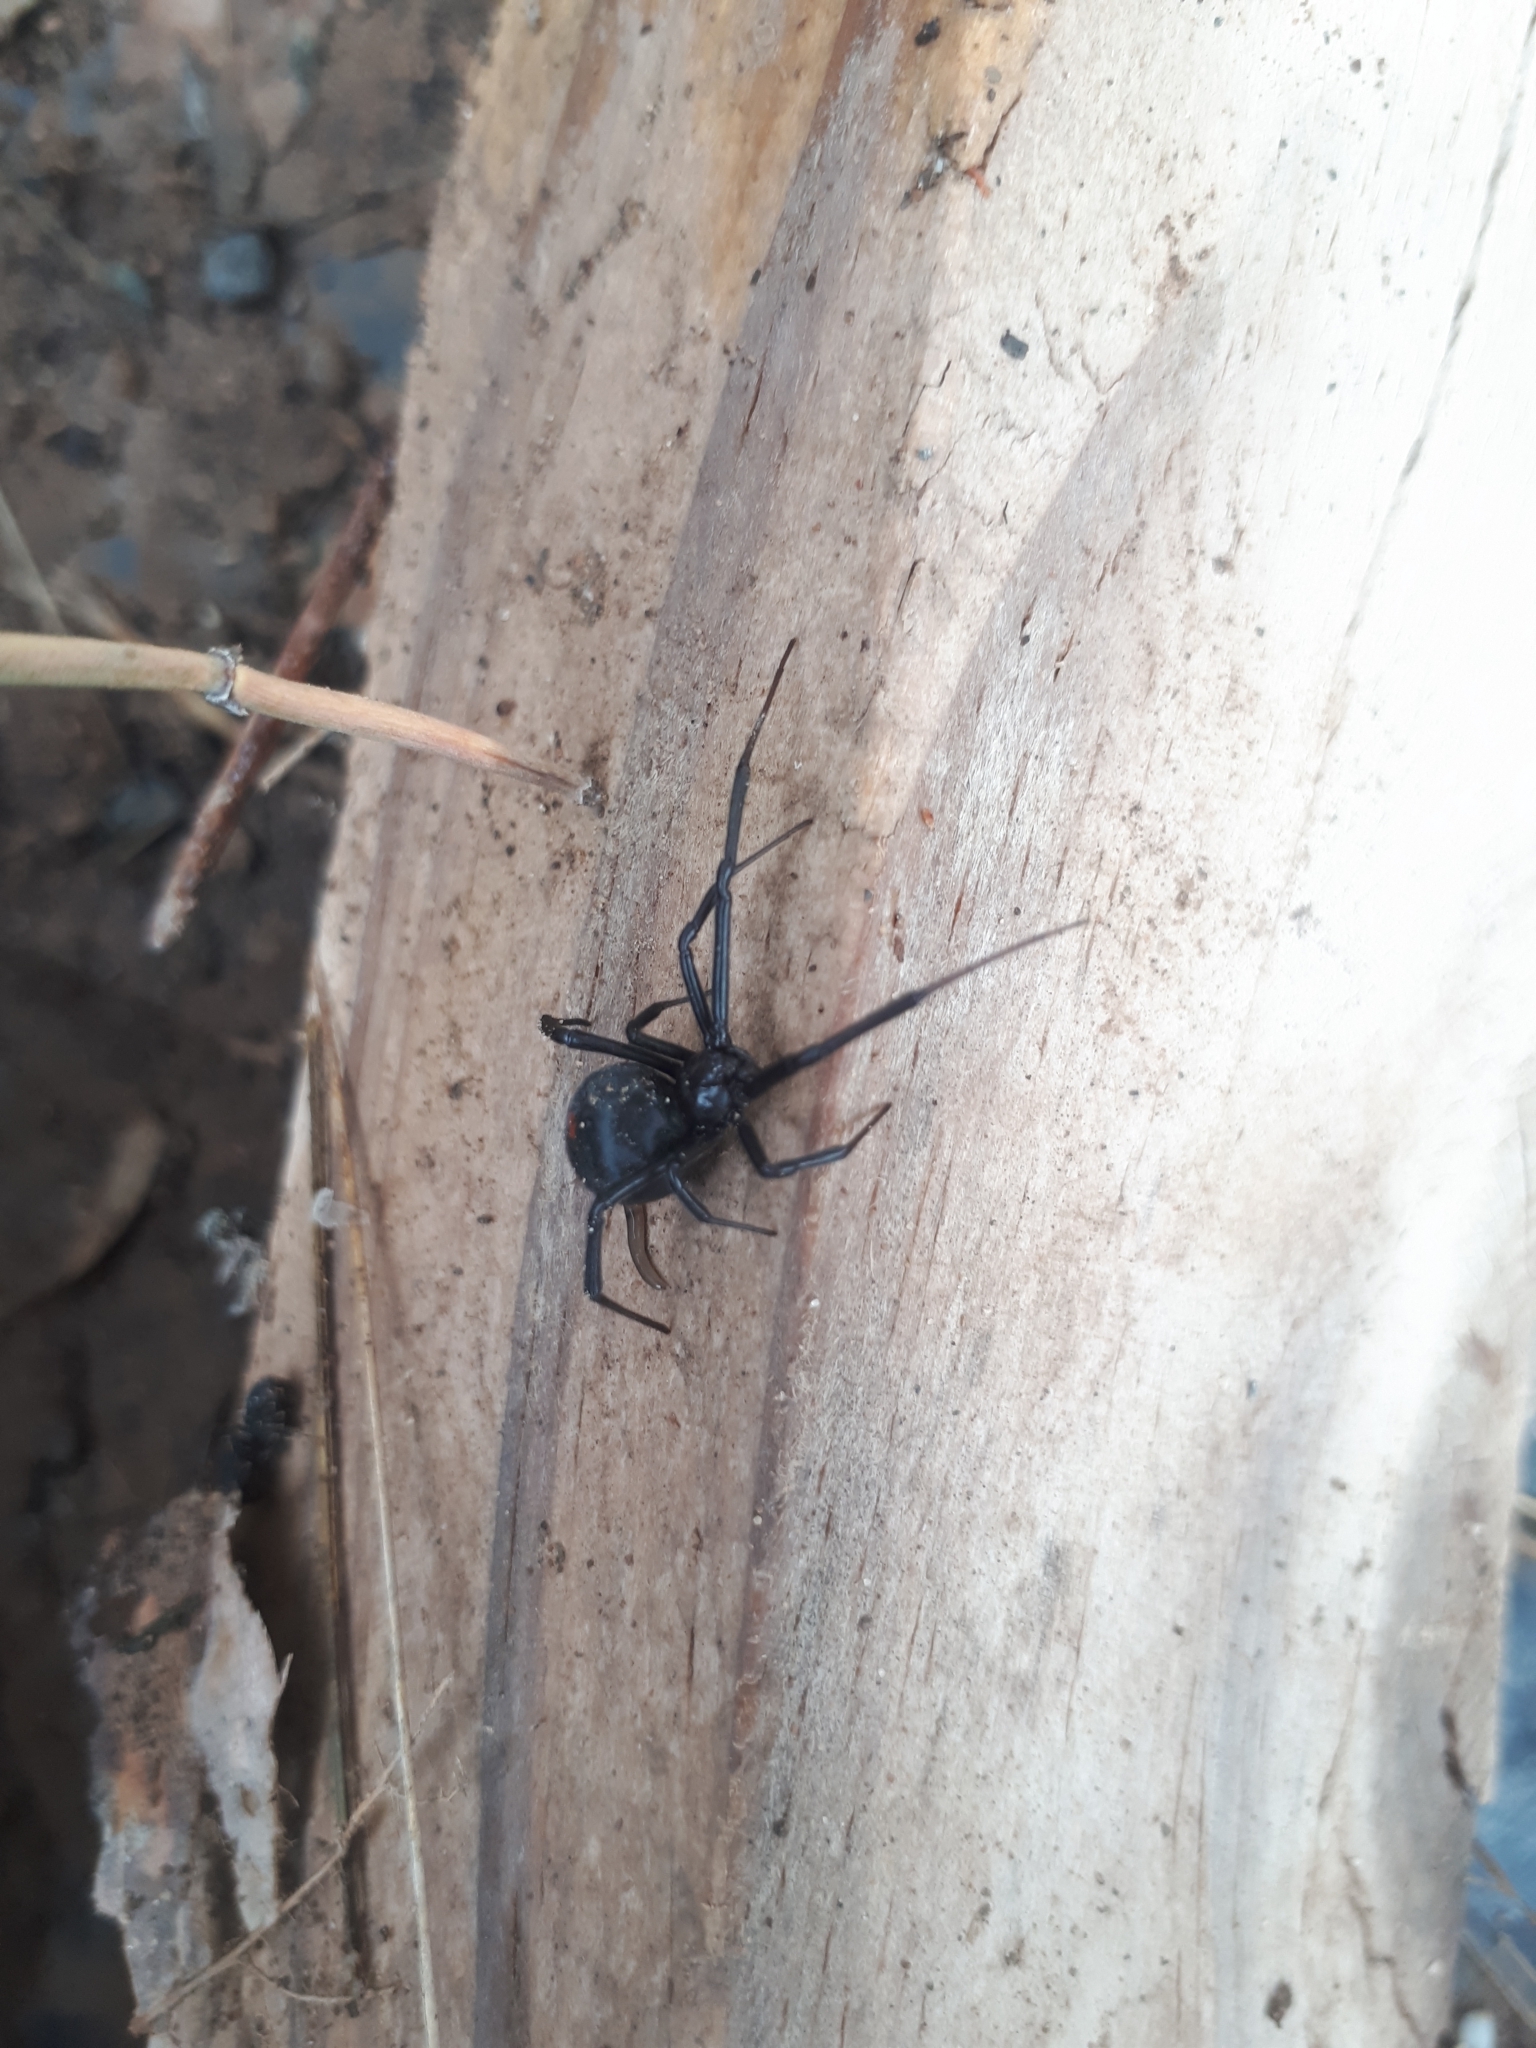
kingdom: Animalia
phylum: Arthropoda
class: Arachnida
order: Araneae
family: Theridiidae
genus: Latrodectus
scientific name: Latrodectus mirabilis
